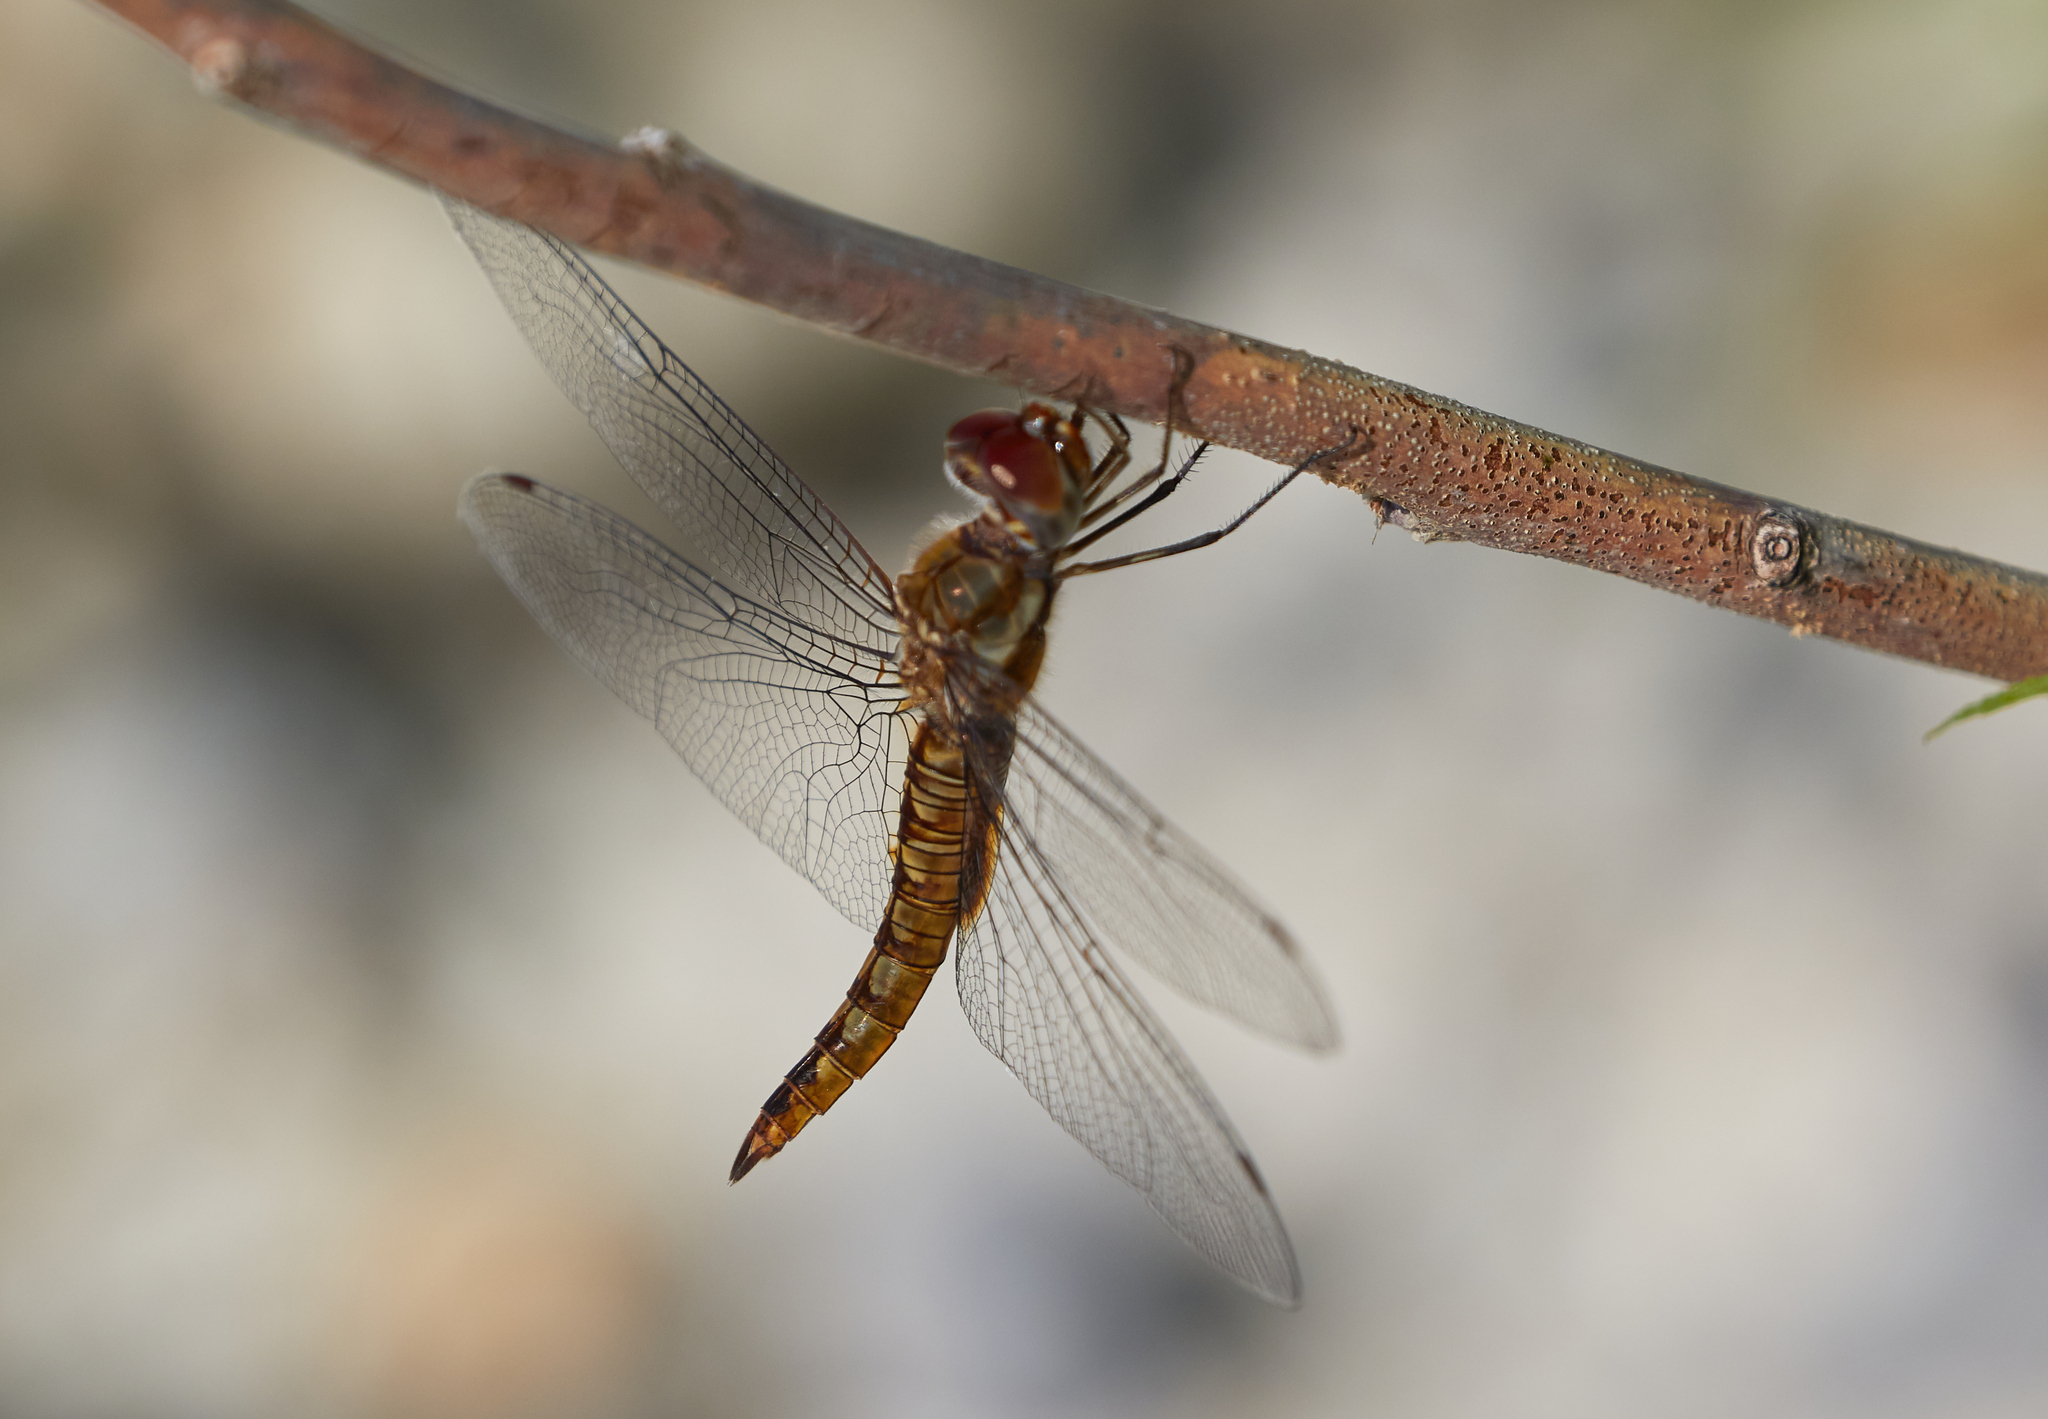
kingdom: Animalia
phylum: Arthropoda
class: Insecta
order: Odonata
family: Libellulidae
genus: Pantala
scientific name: Pantala hymenaea
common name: Spot-winged glider
